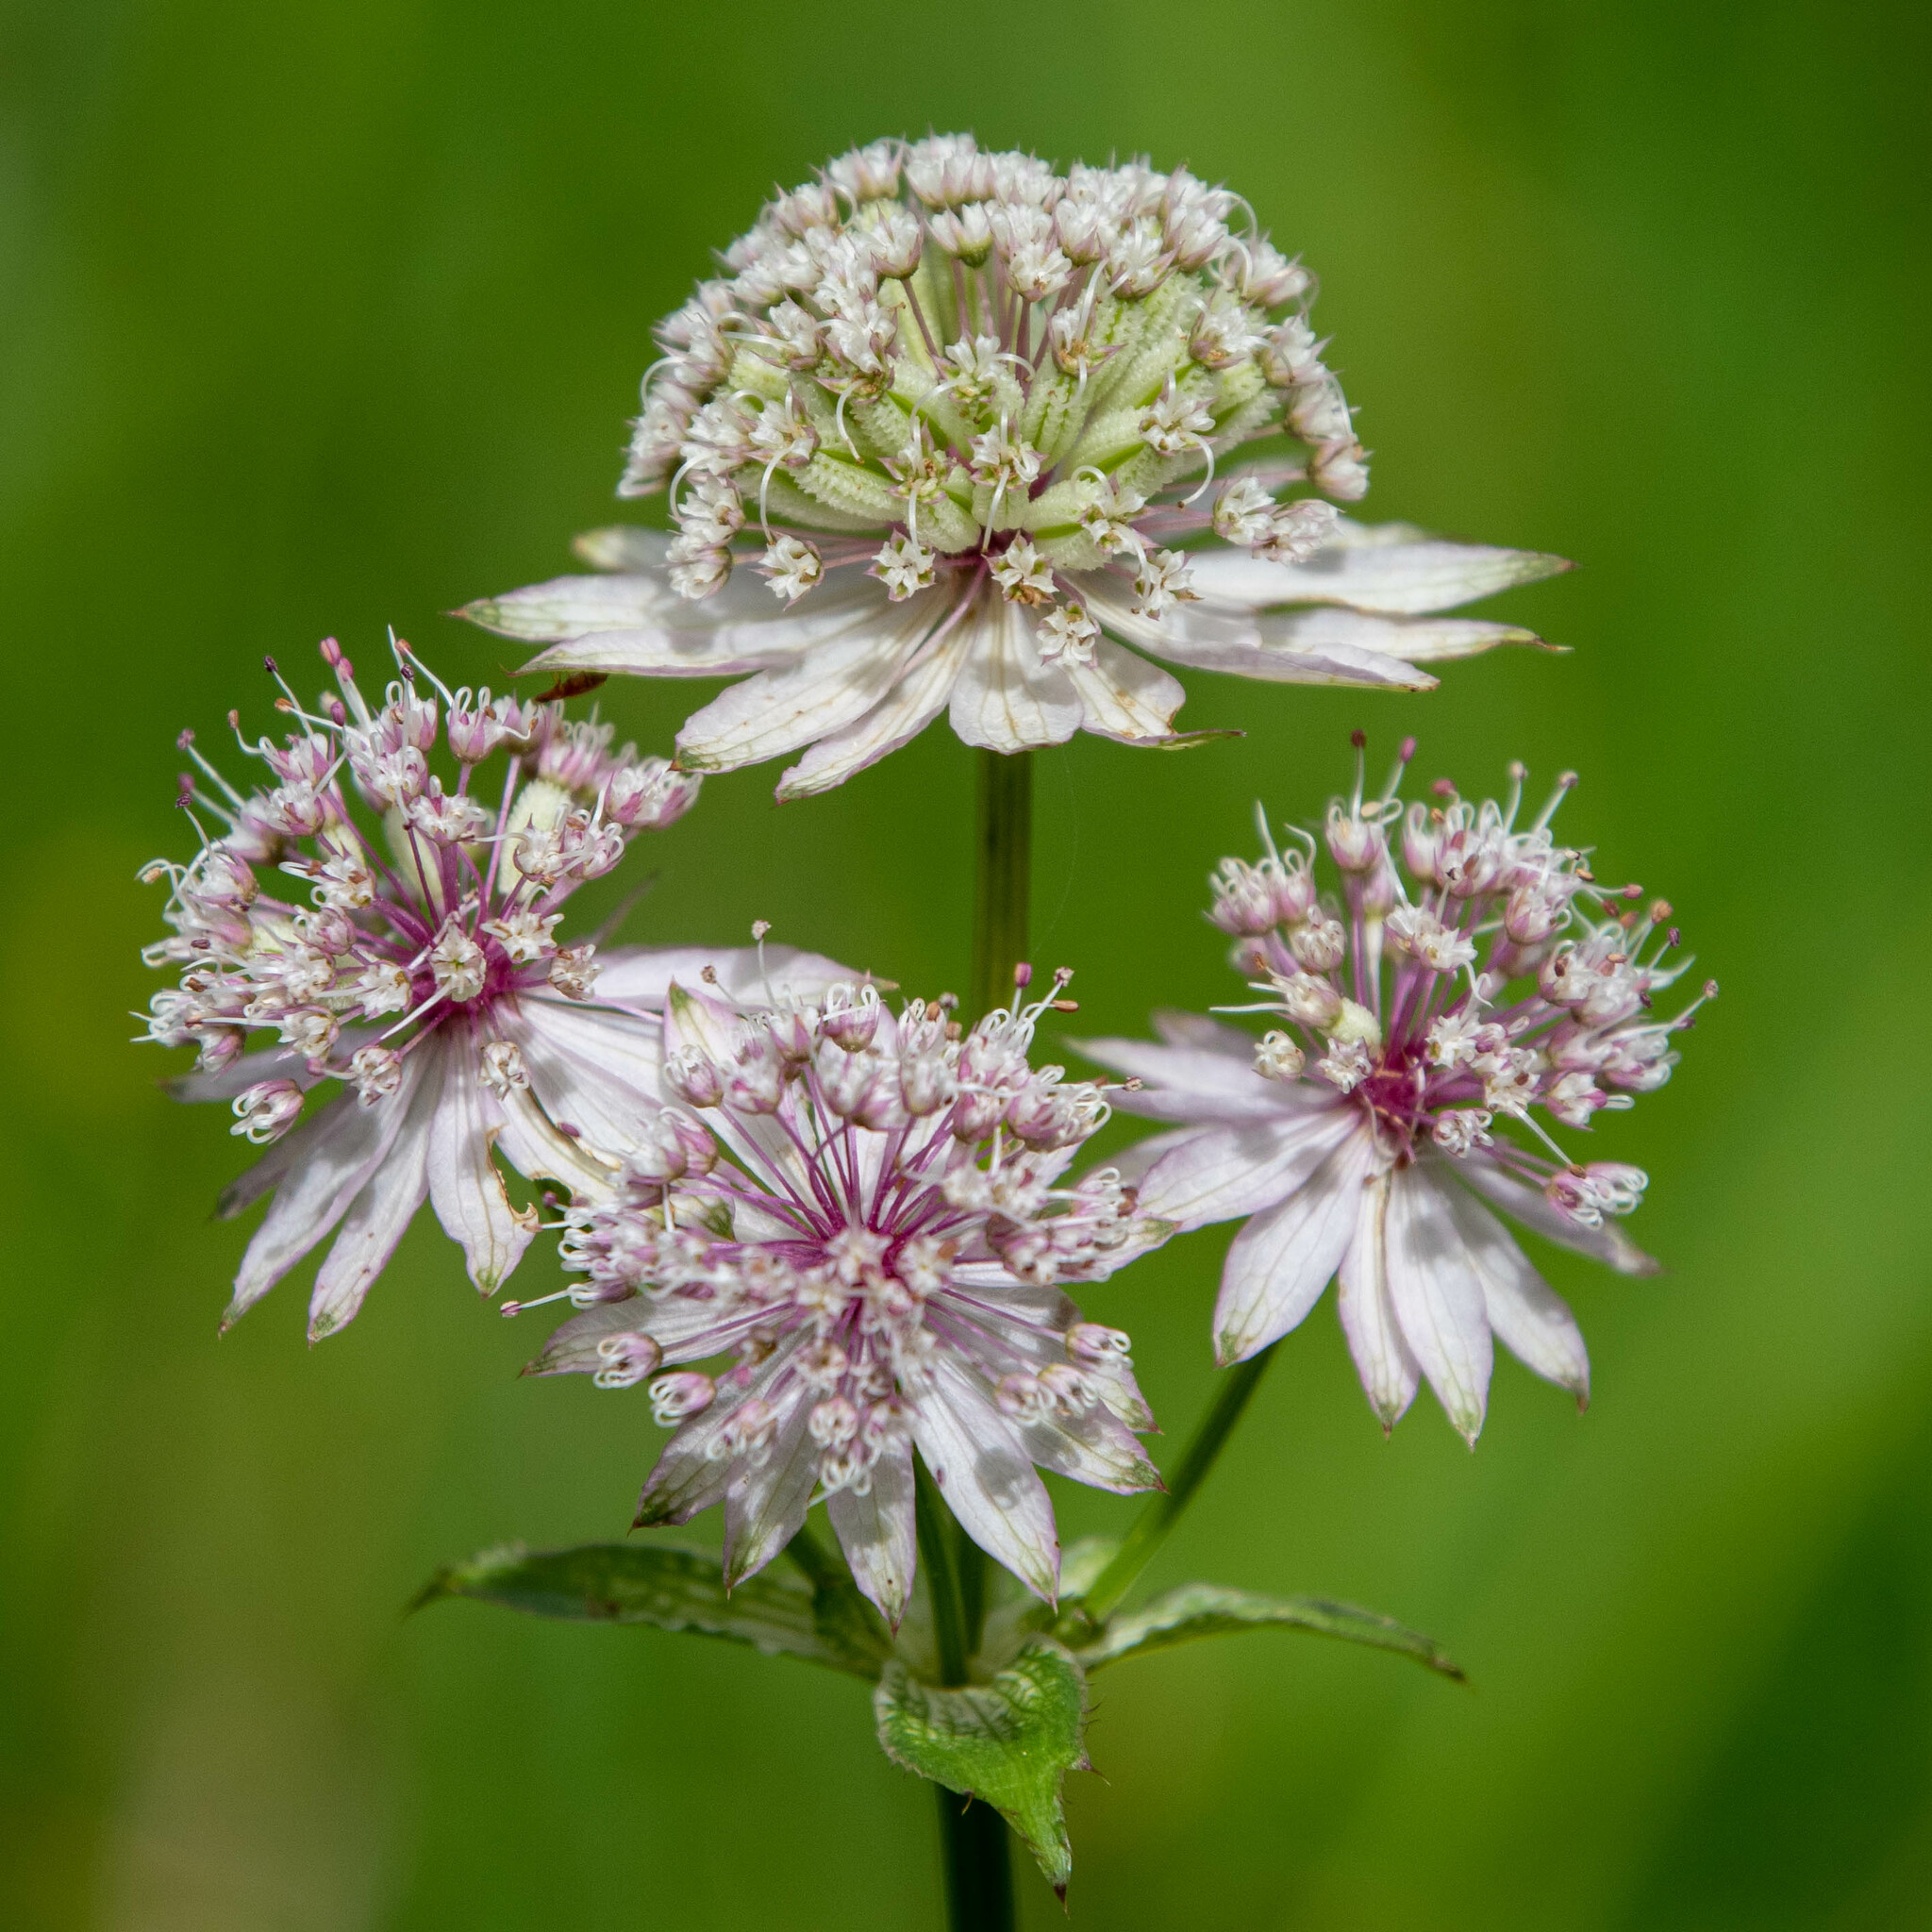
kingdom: Plantae
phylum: Tracheophyta
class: Magnoliopsida
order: Apiales
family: Apiaceae
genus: Astrantia
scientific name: Astrantia major
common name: Greater masterwort
